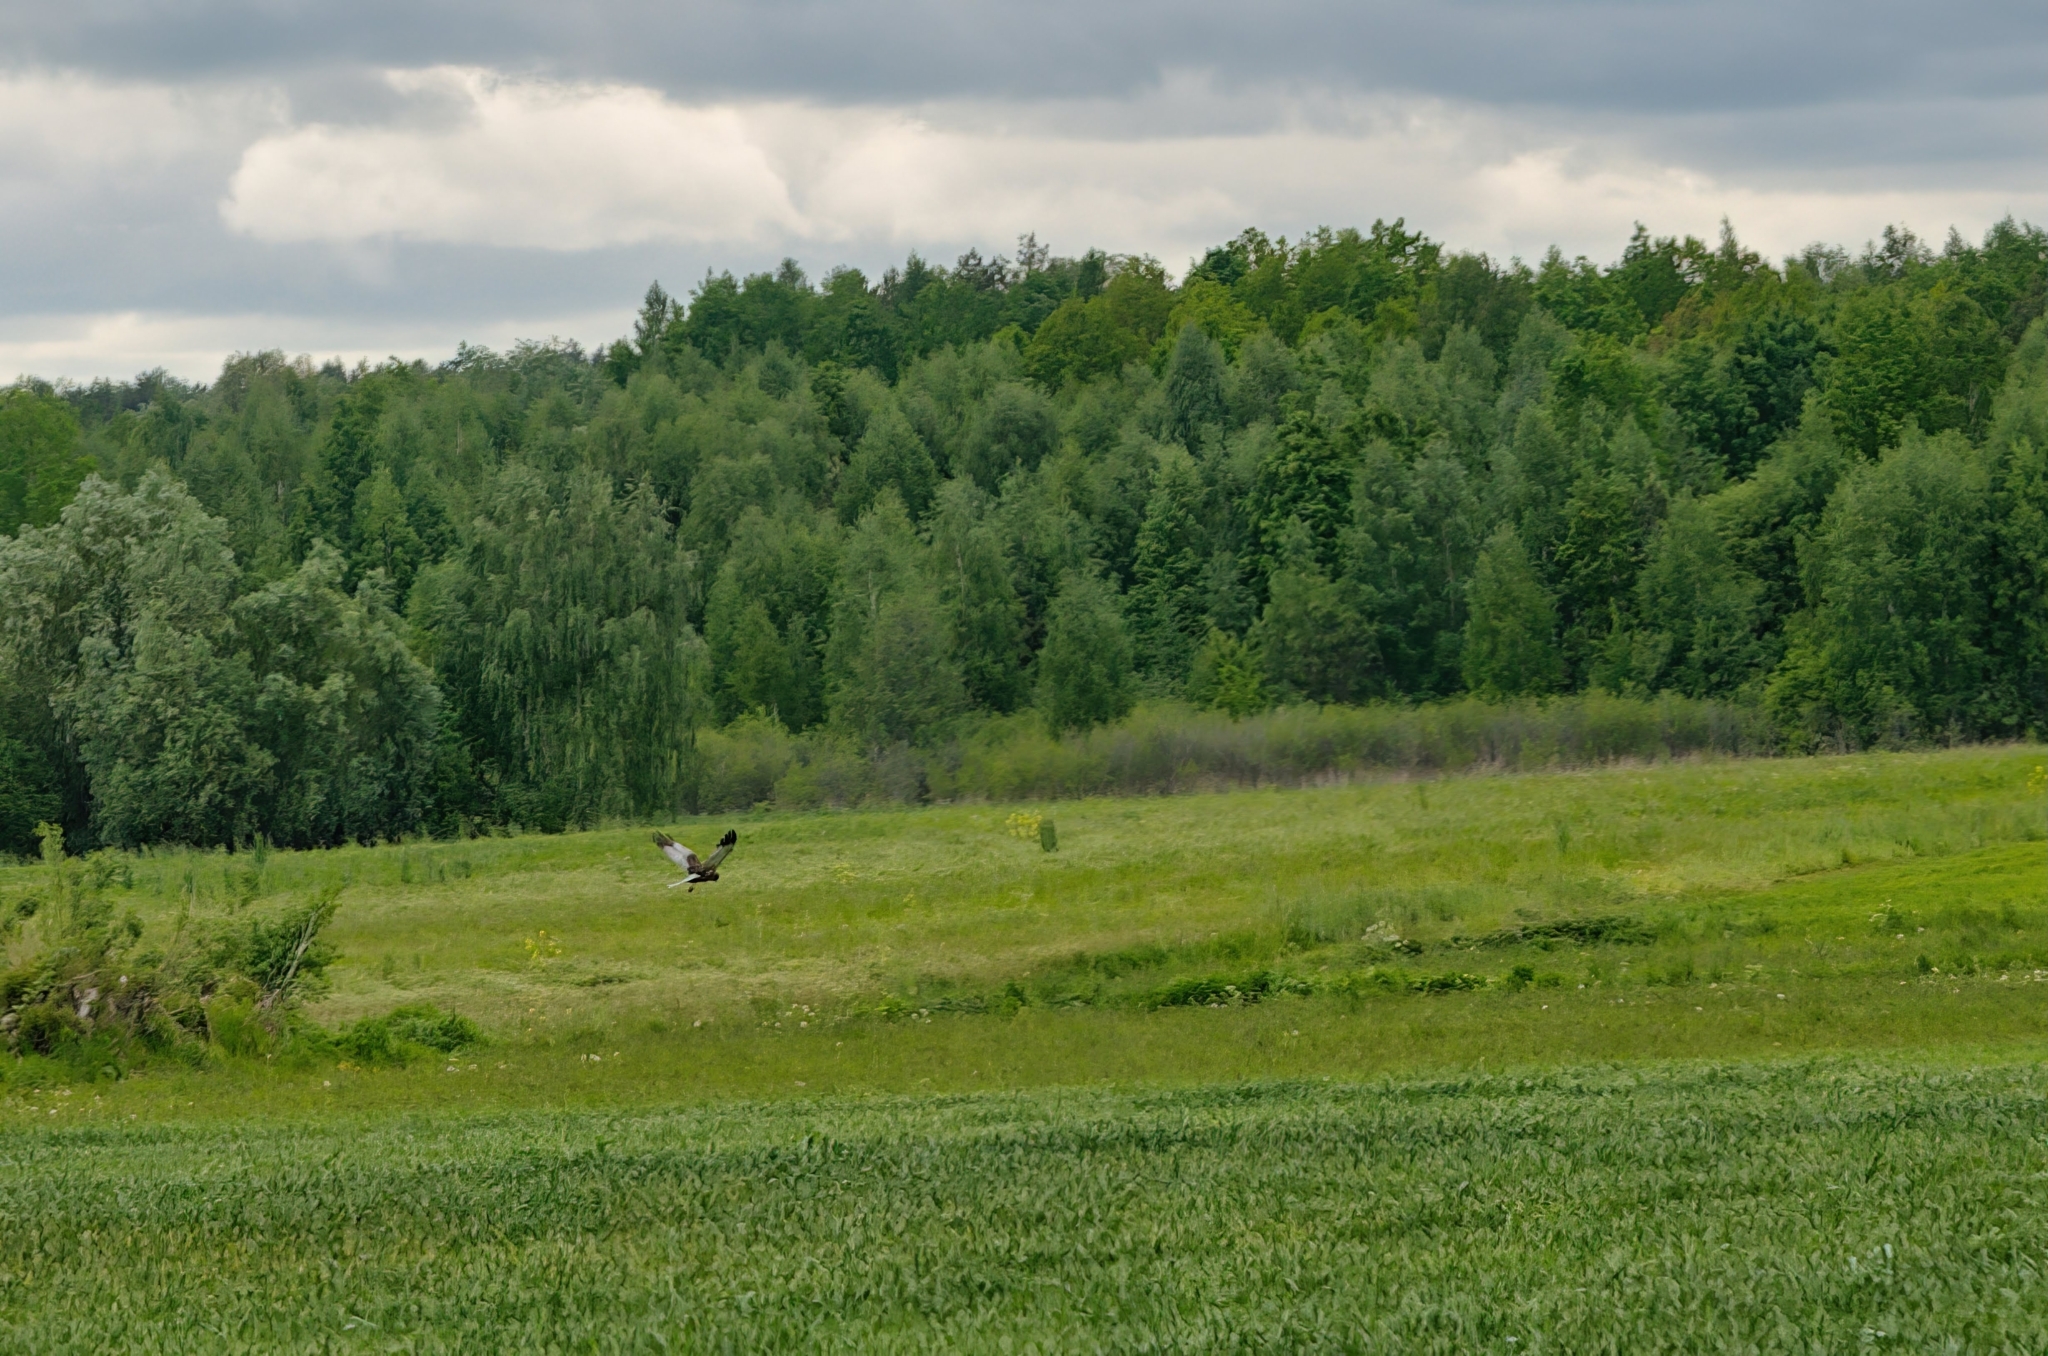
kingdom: Animalia
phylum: Chordata
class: Aves
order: Accipitriformes
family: Accipitridae
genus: Circus
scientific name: Circus aeruginosus
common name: Western marsh harrier
